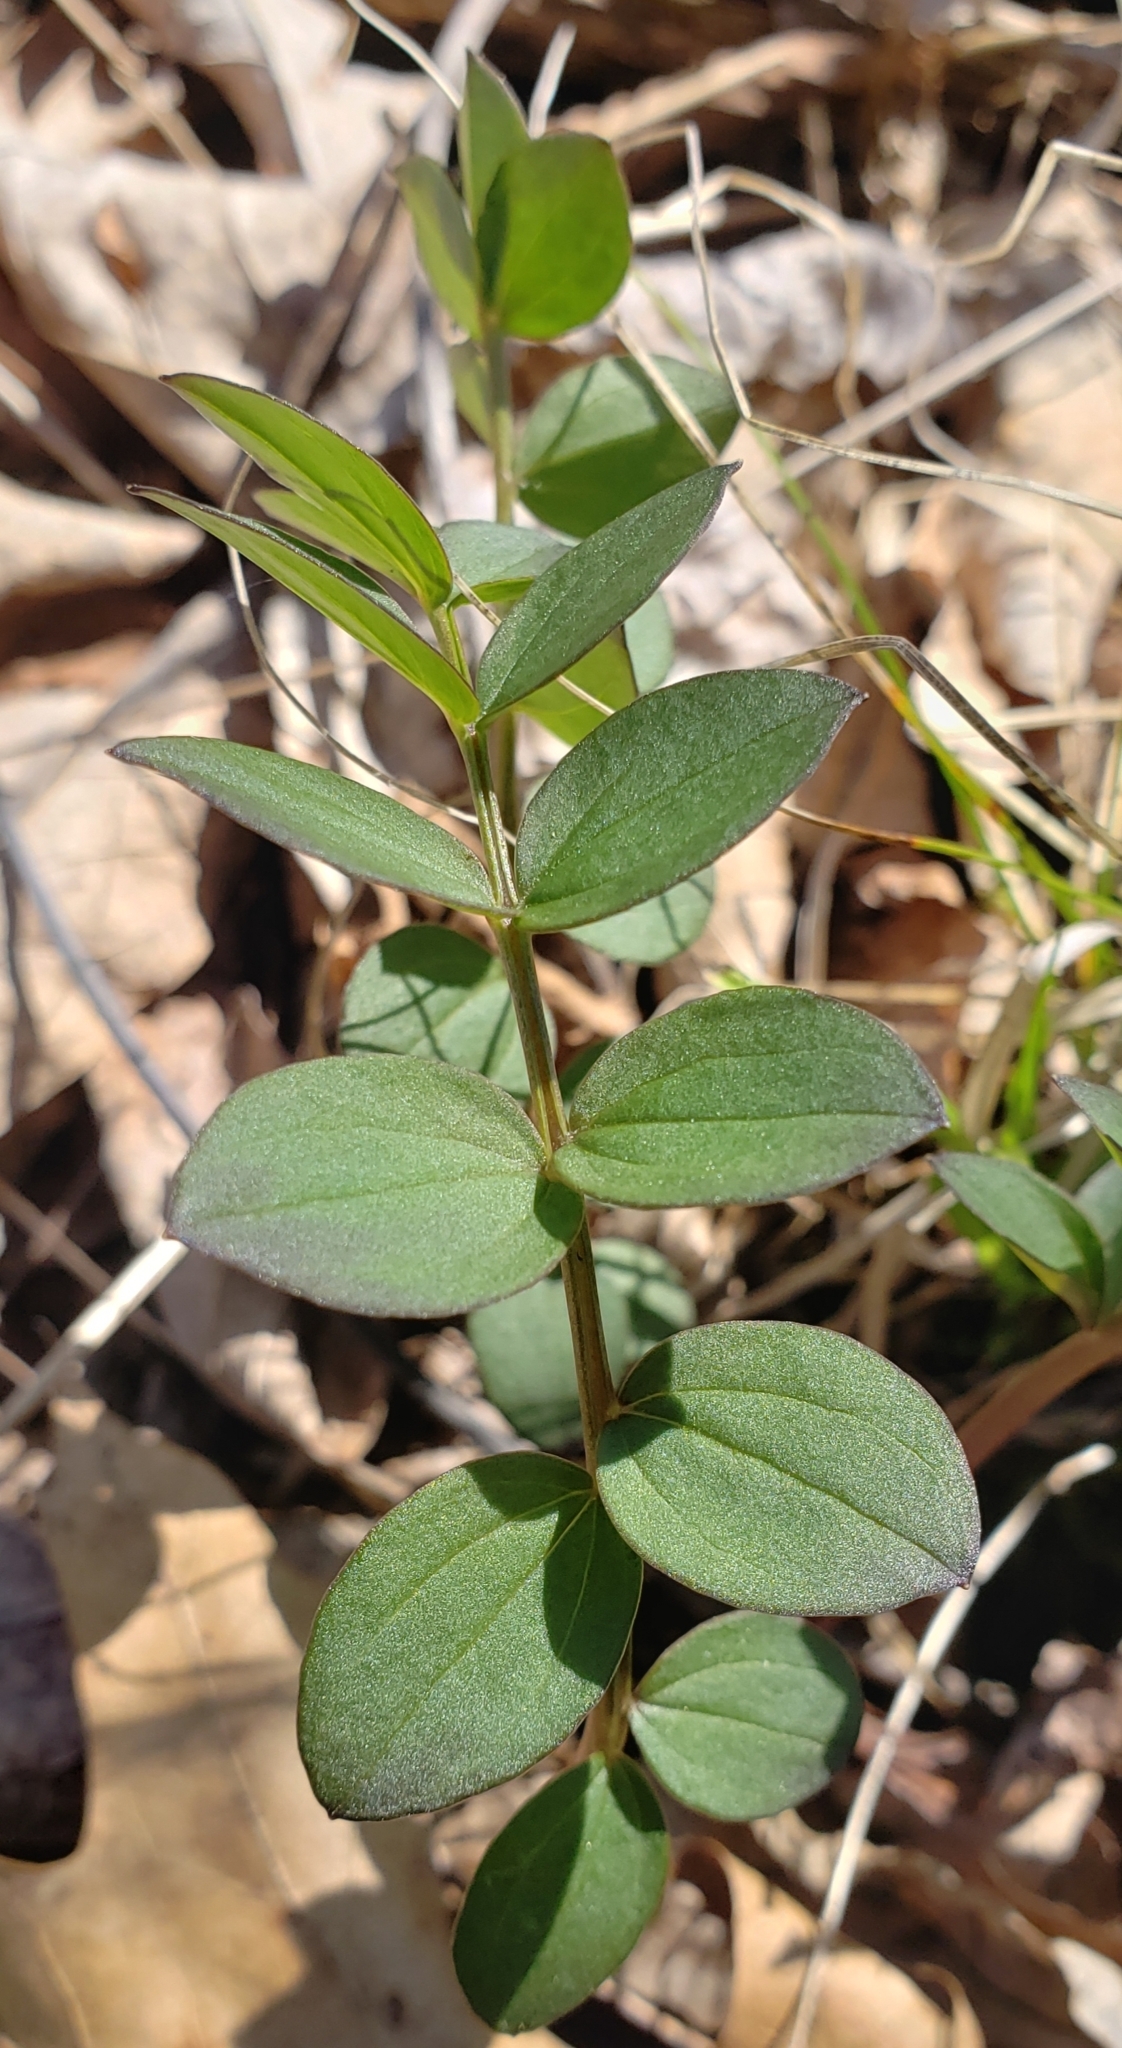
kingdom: Plantae
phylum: Tracheophyta
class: Magnoliopsida
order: Ericales
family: Polemoniaceae
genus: Polemonium
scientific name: Polemonium reptans
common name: Creeping jacob's-ladder
